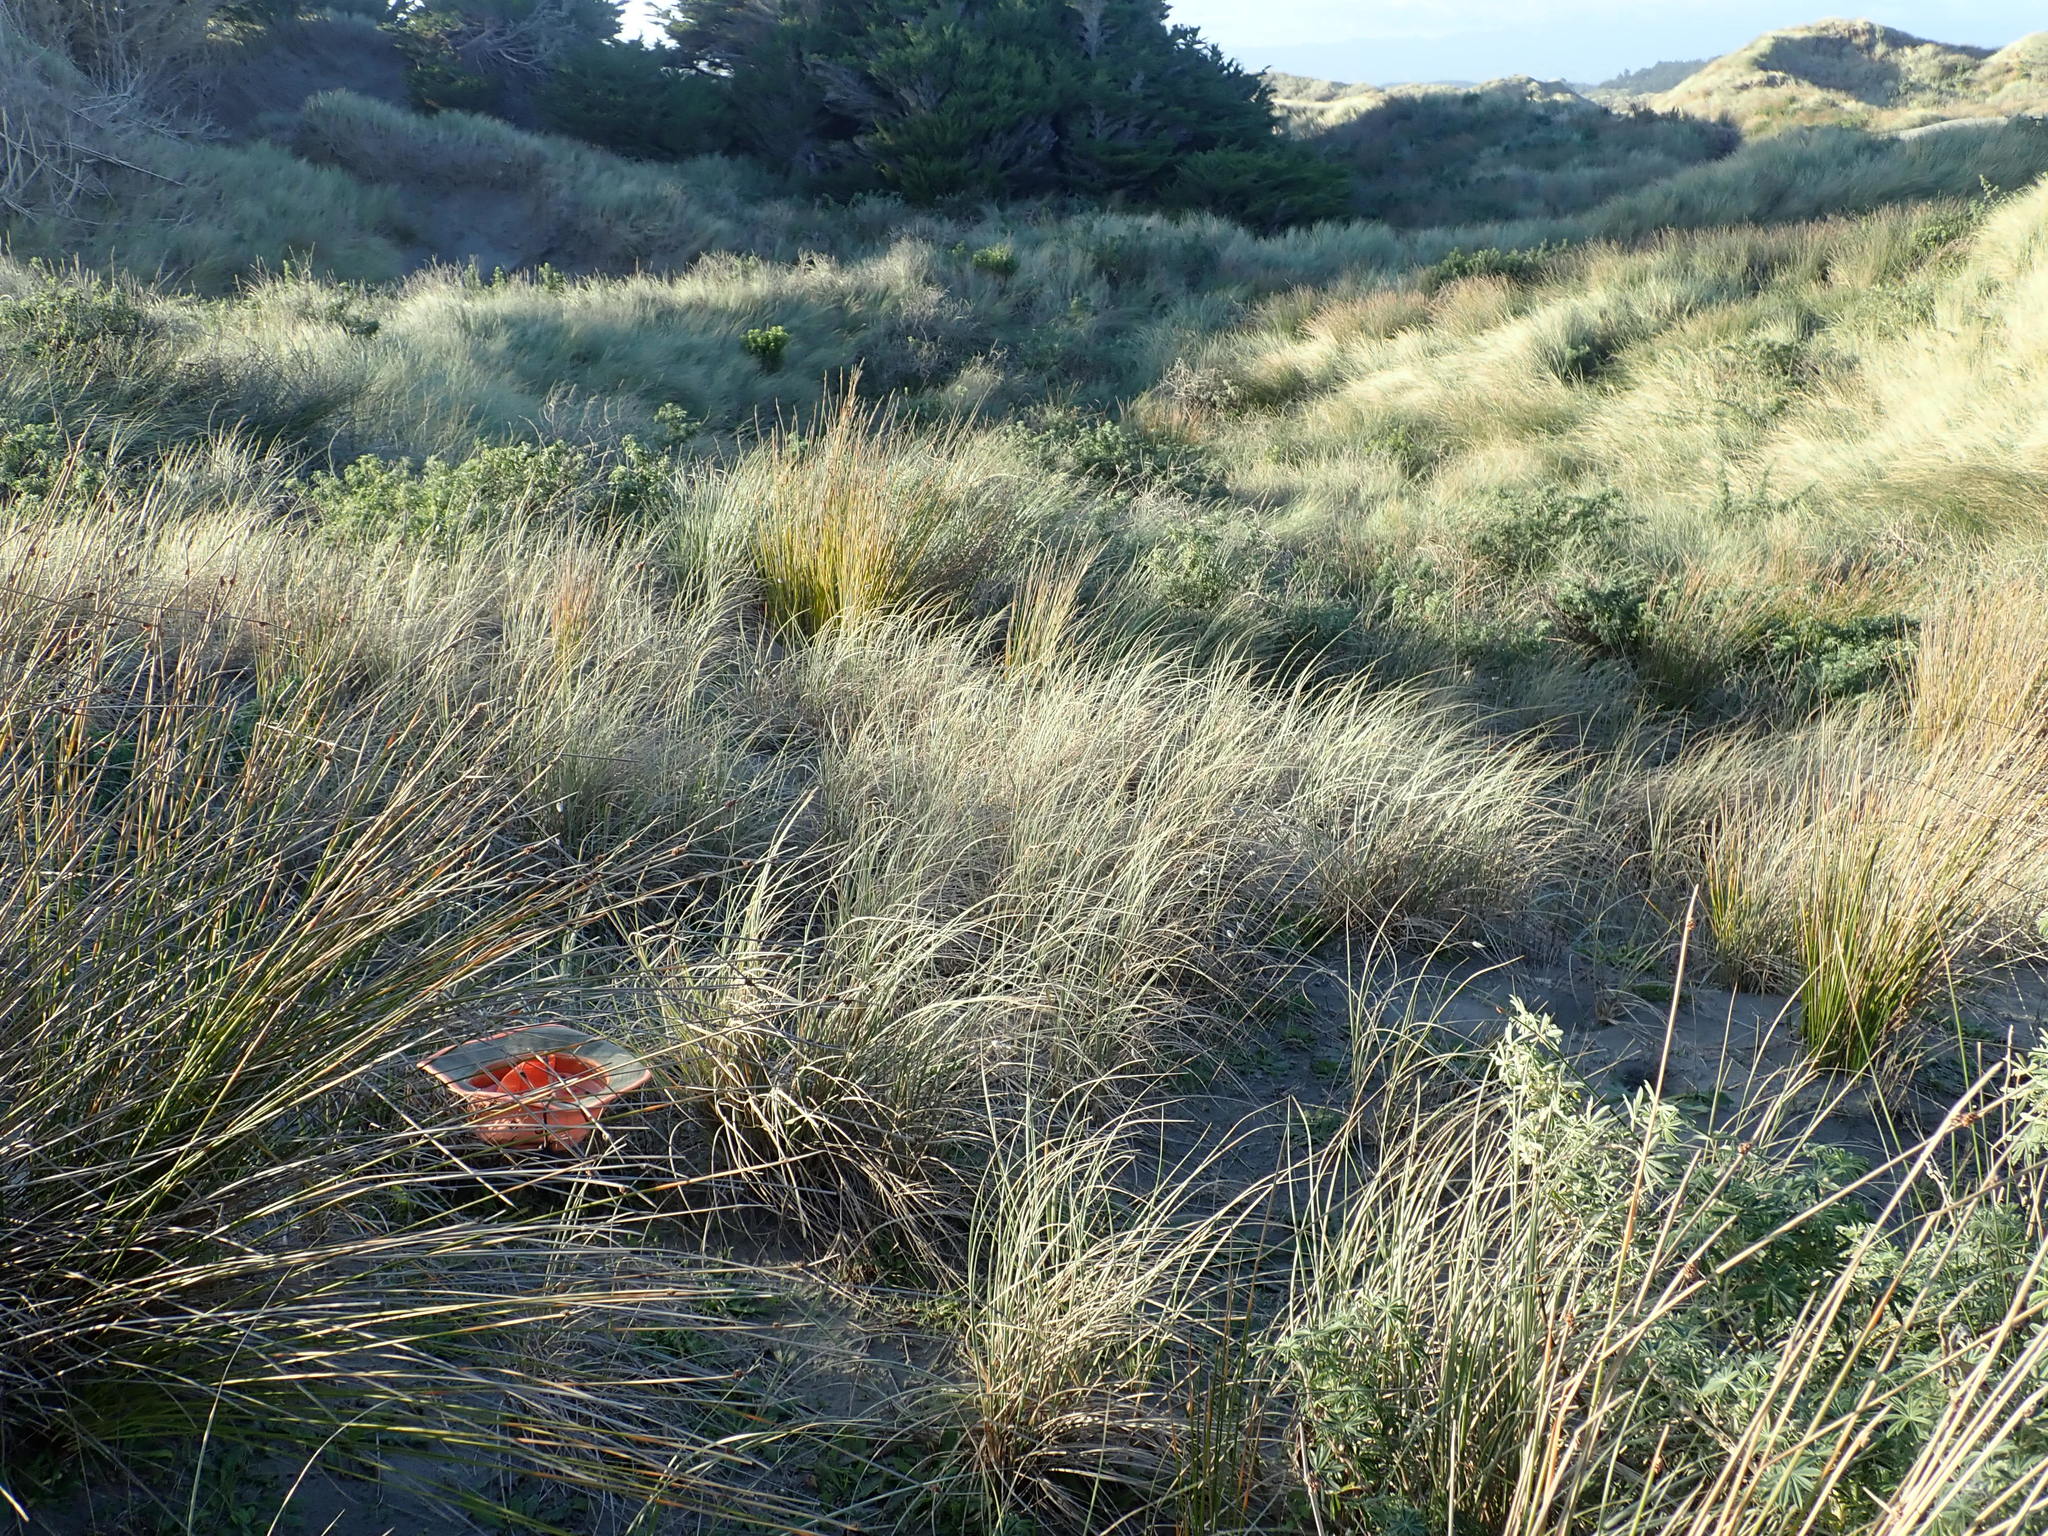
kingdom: Animalia
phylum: Mollusca
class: Gastropoda
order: Stylommatophora
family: Geomitridae
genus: Xeroplexa
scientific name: Xeroplexa intersecta
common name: Wrinkled snail
